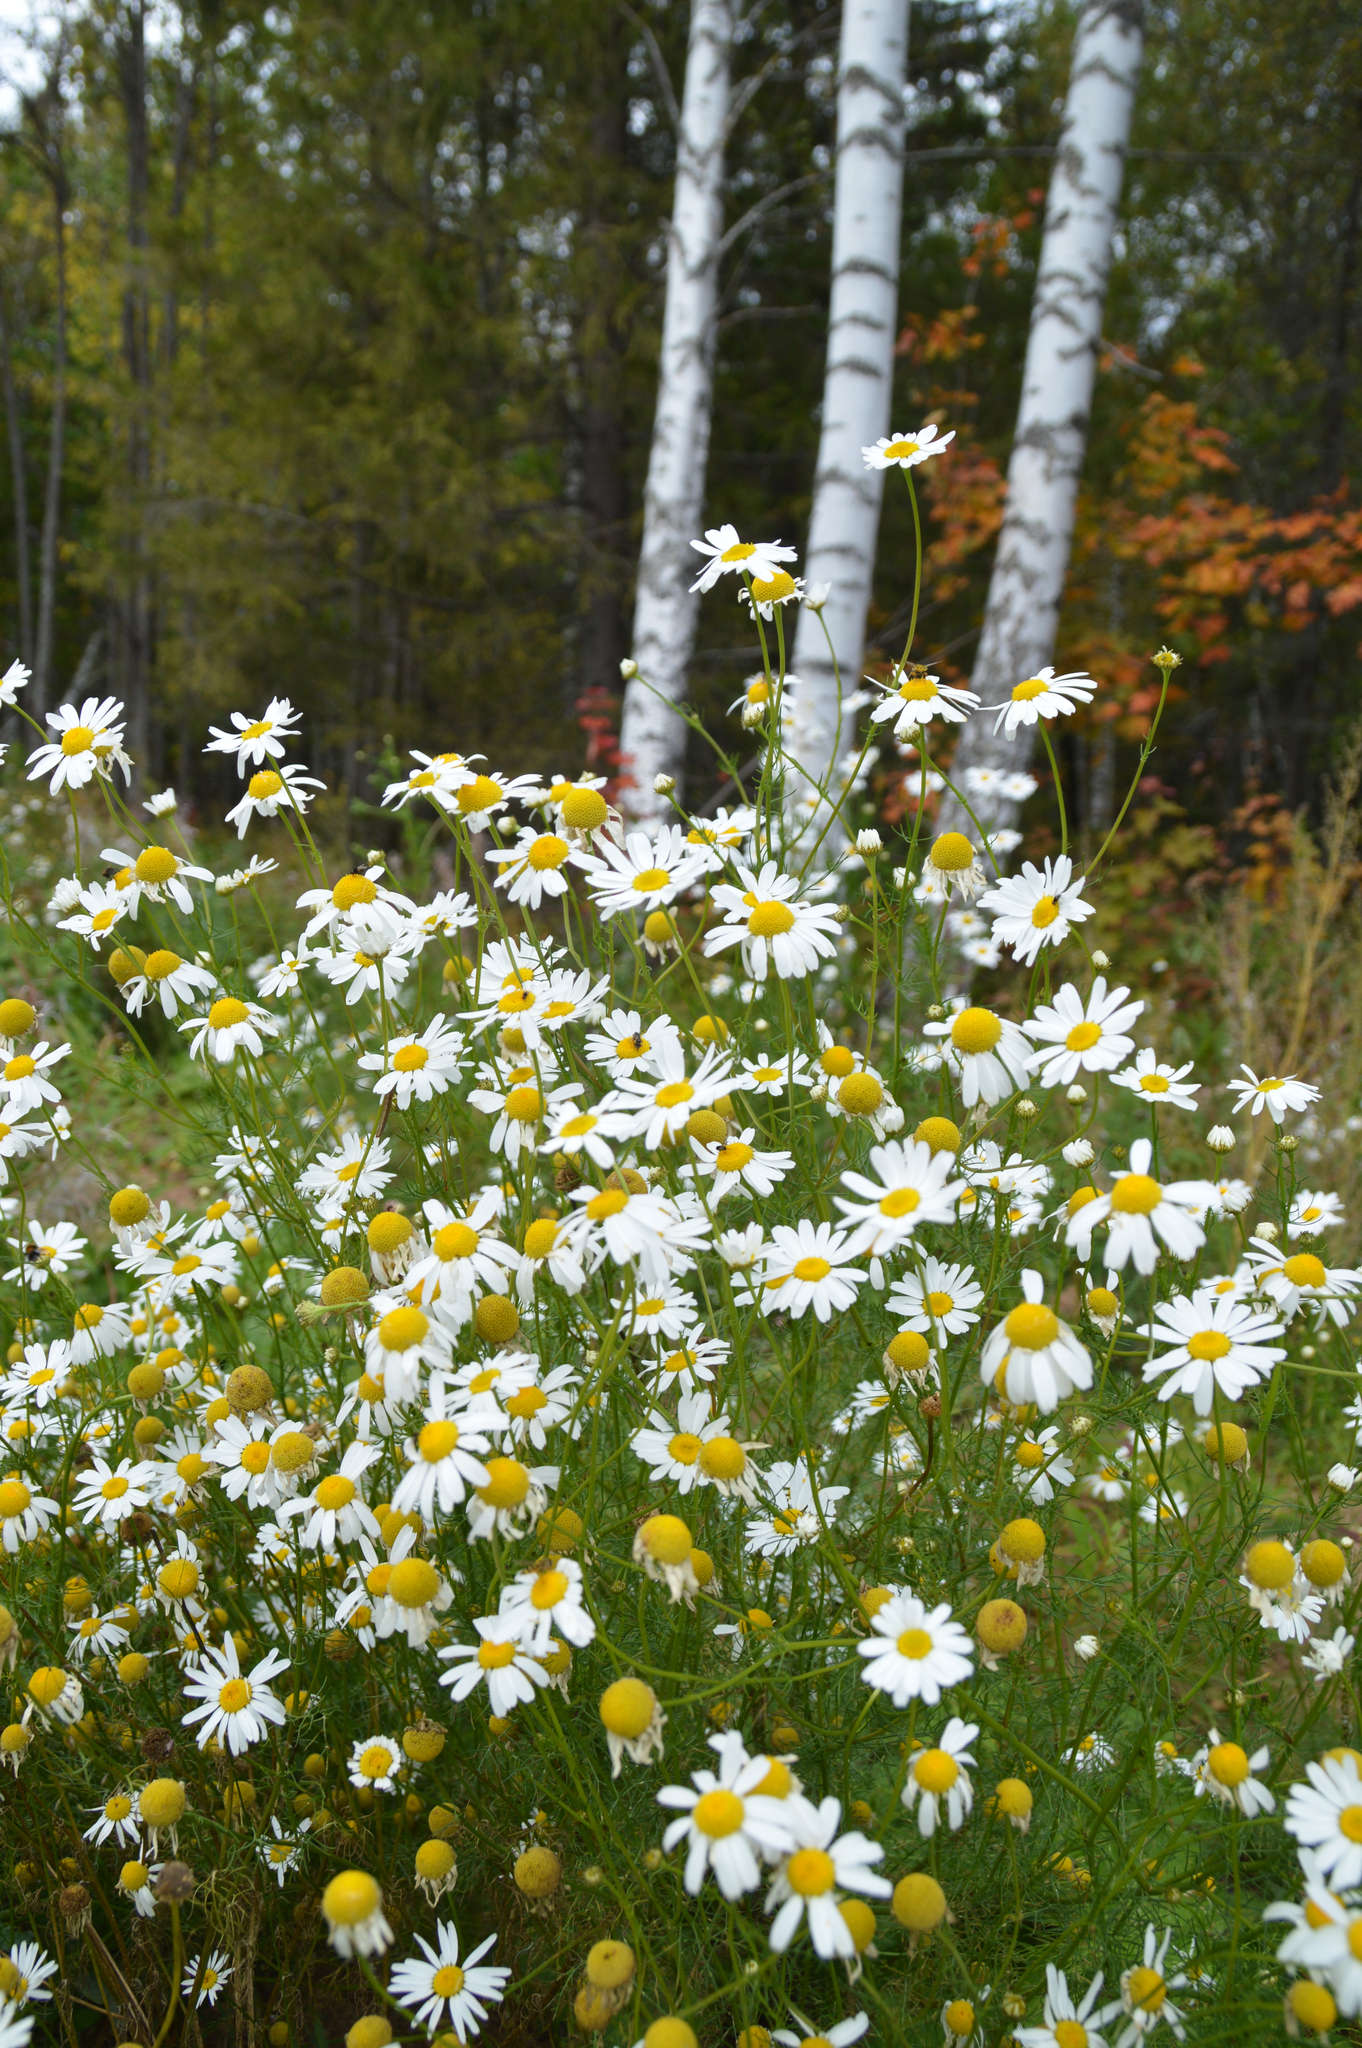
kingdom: Plantae
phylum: Tracheophyta
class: Magnoliopsida
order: Asterales
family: Asteraceae
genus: Tripleurospermum
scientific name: Tripleurospermum inodorum
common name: Scentless mayweed
